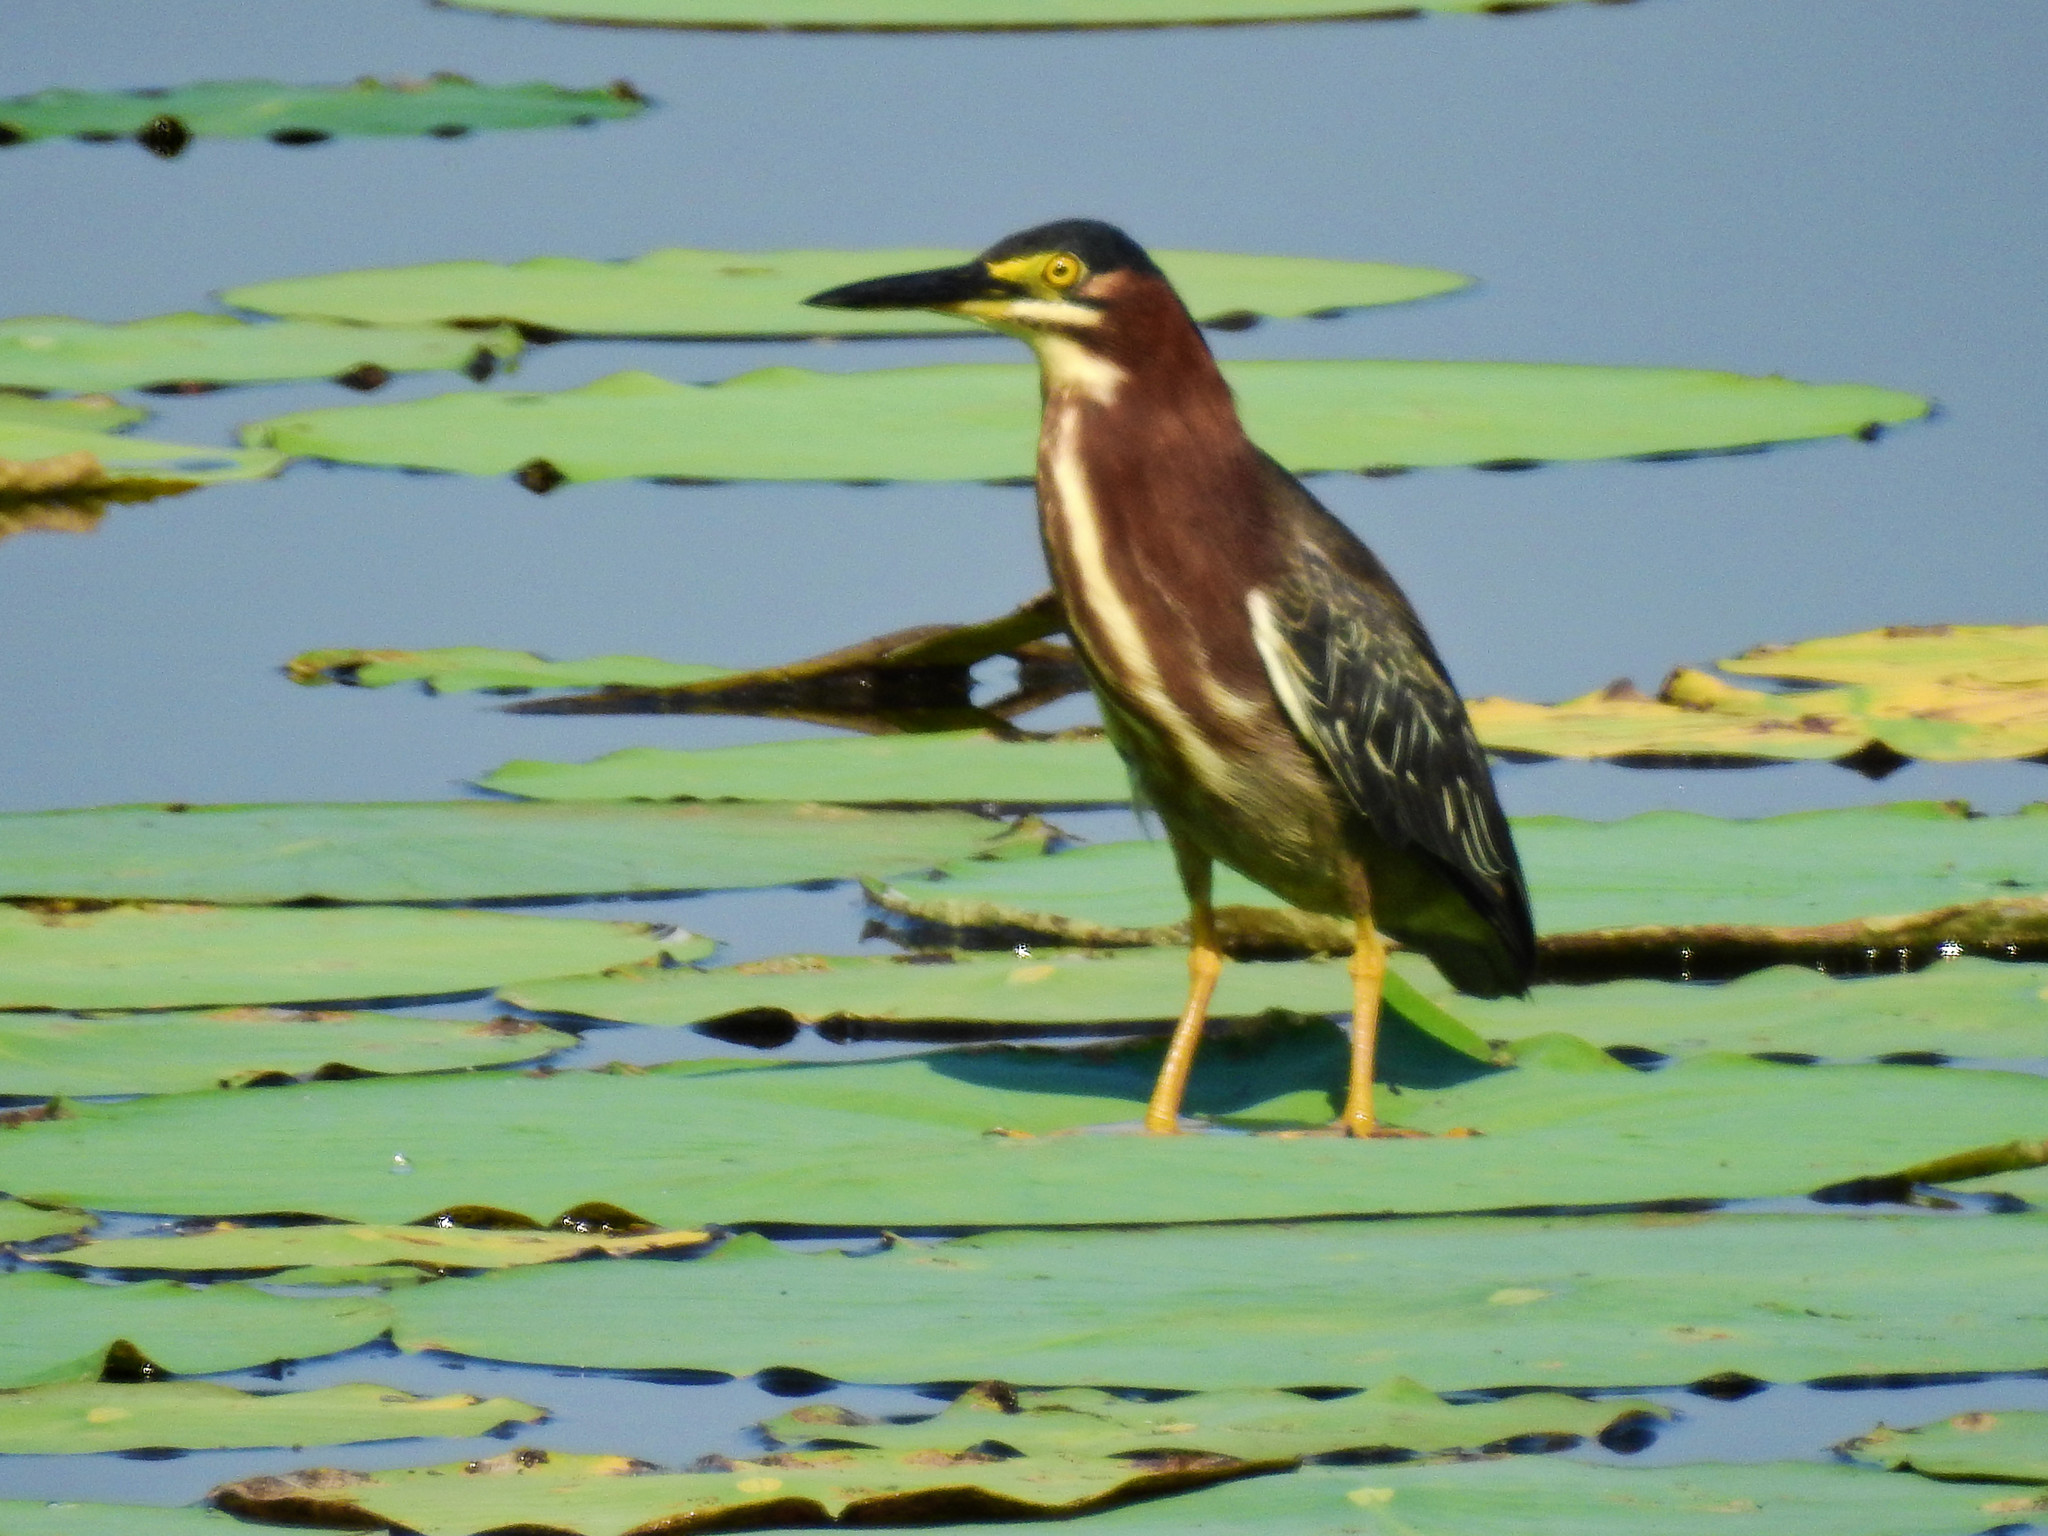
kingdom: Animalia
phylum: Chordata
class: Aves
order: Pelecaniformes
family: Ardeidae
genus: Butorides
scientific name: Butorides virescens
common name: Green heron
